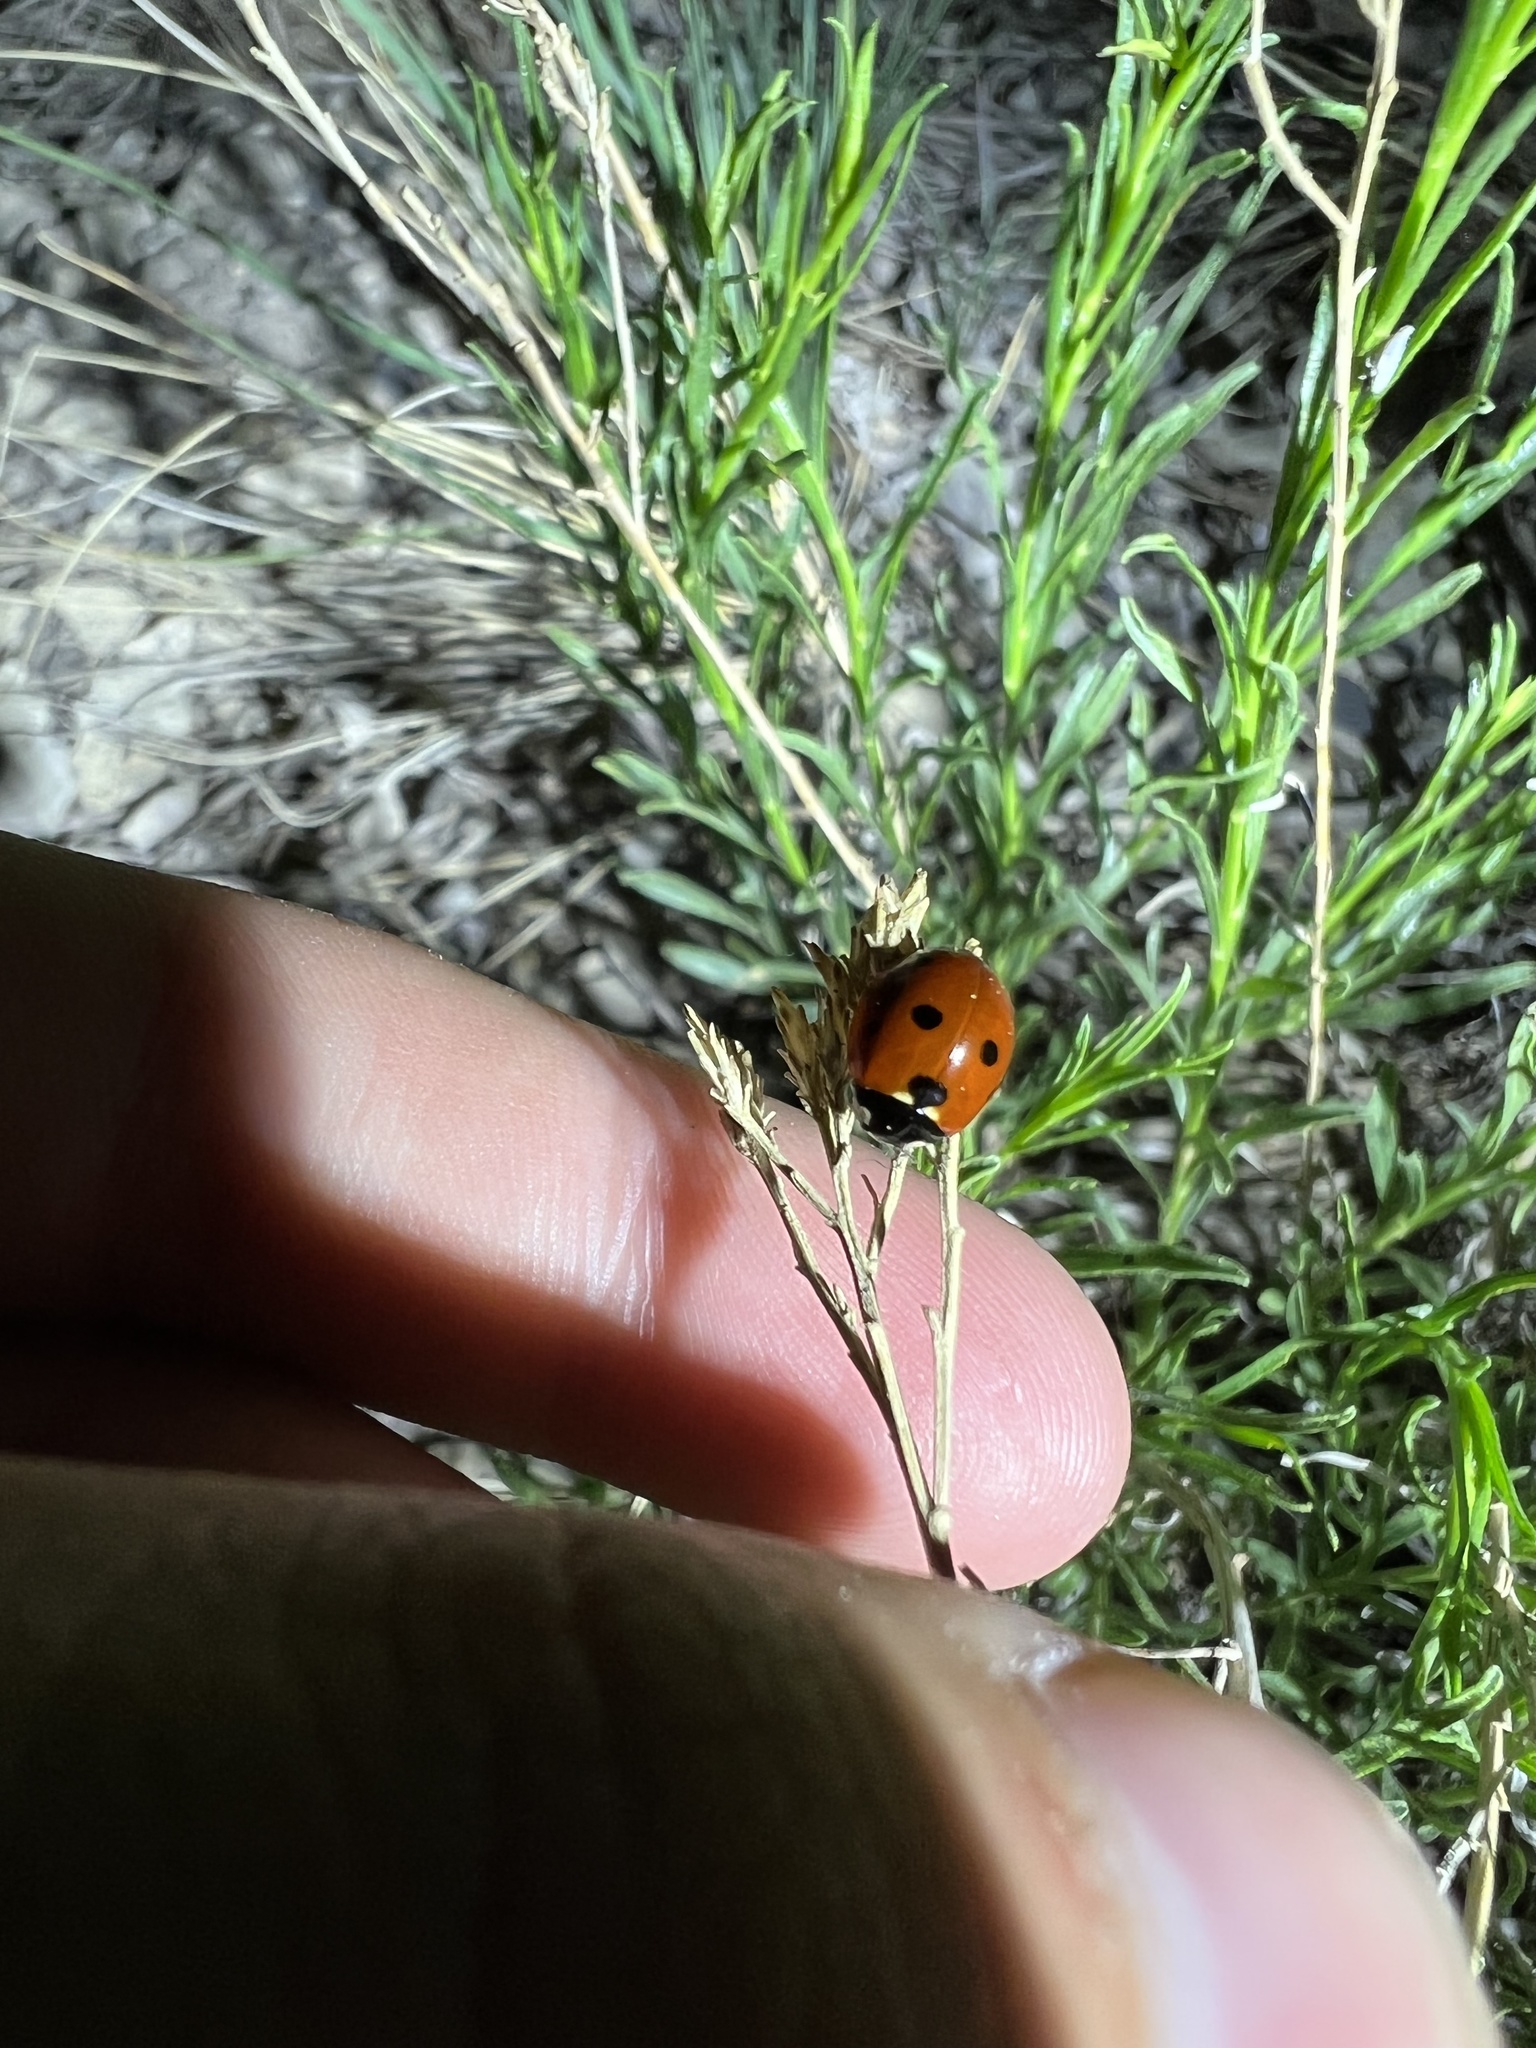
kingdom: Animalia
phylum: Arthropoda
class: Insecta
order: Coleoptera
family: Coccinellidae
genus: Coccinella
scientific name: Coccinella septempunctata
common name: Sevenspotted lady beetle
